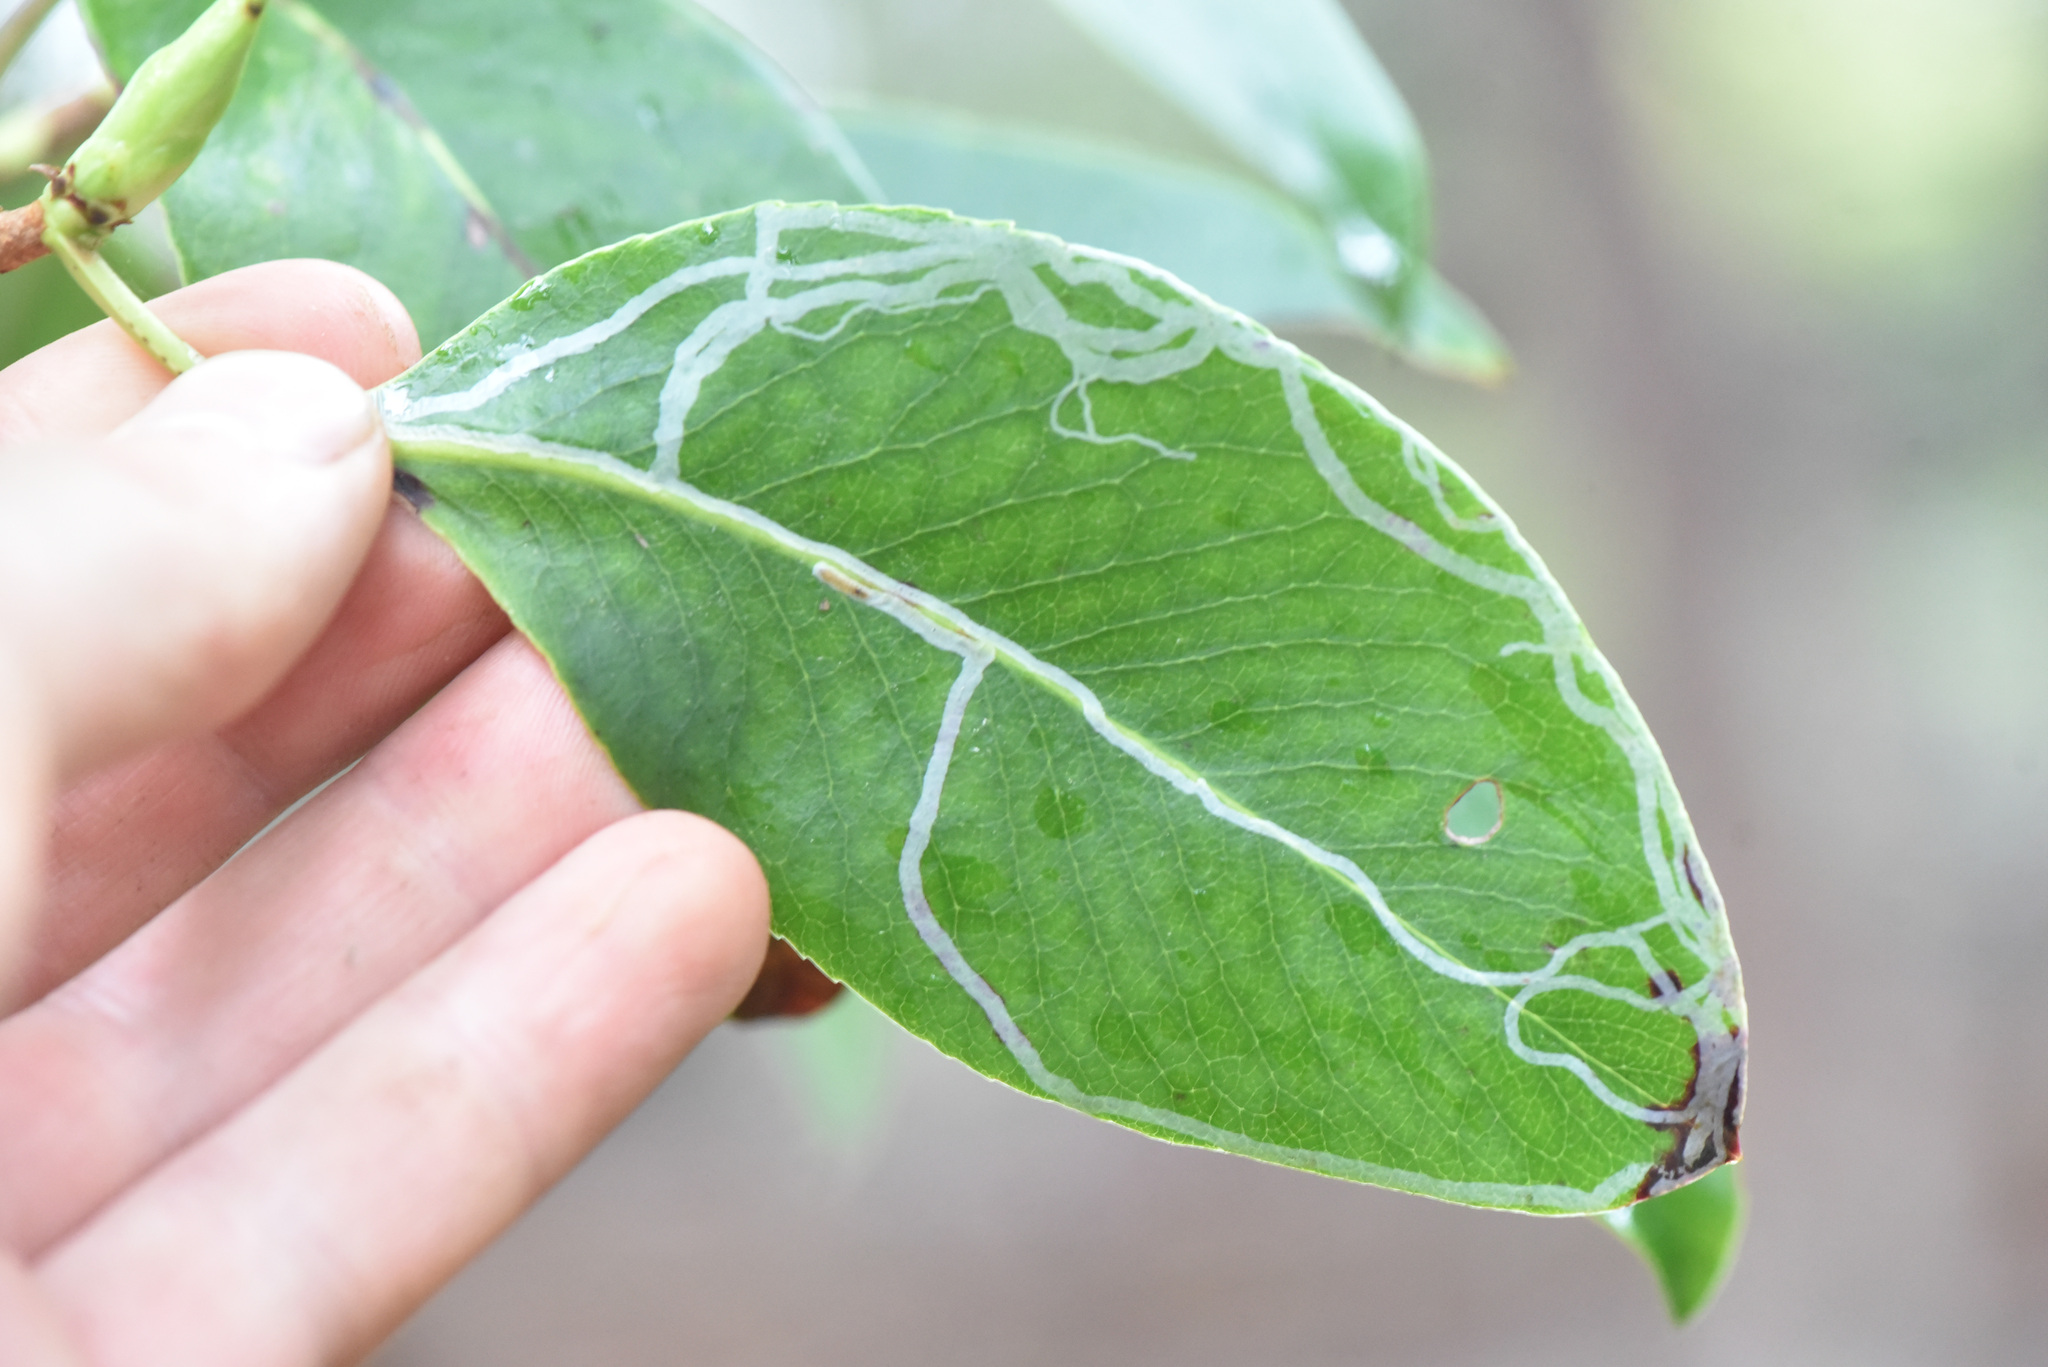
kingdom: Animalia
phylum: Arthropoda
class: Insecta
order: Lepidoptera
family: Gracillariidae
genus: Marmara
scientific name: Marmara arbutiella
